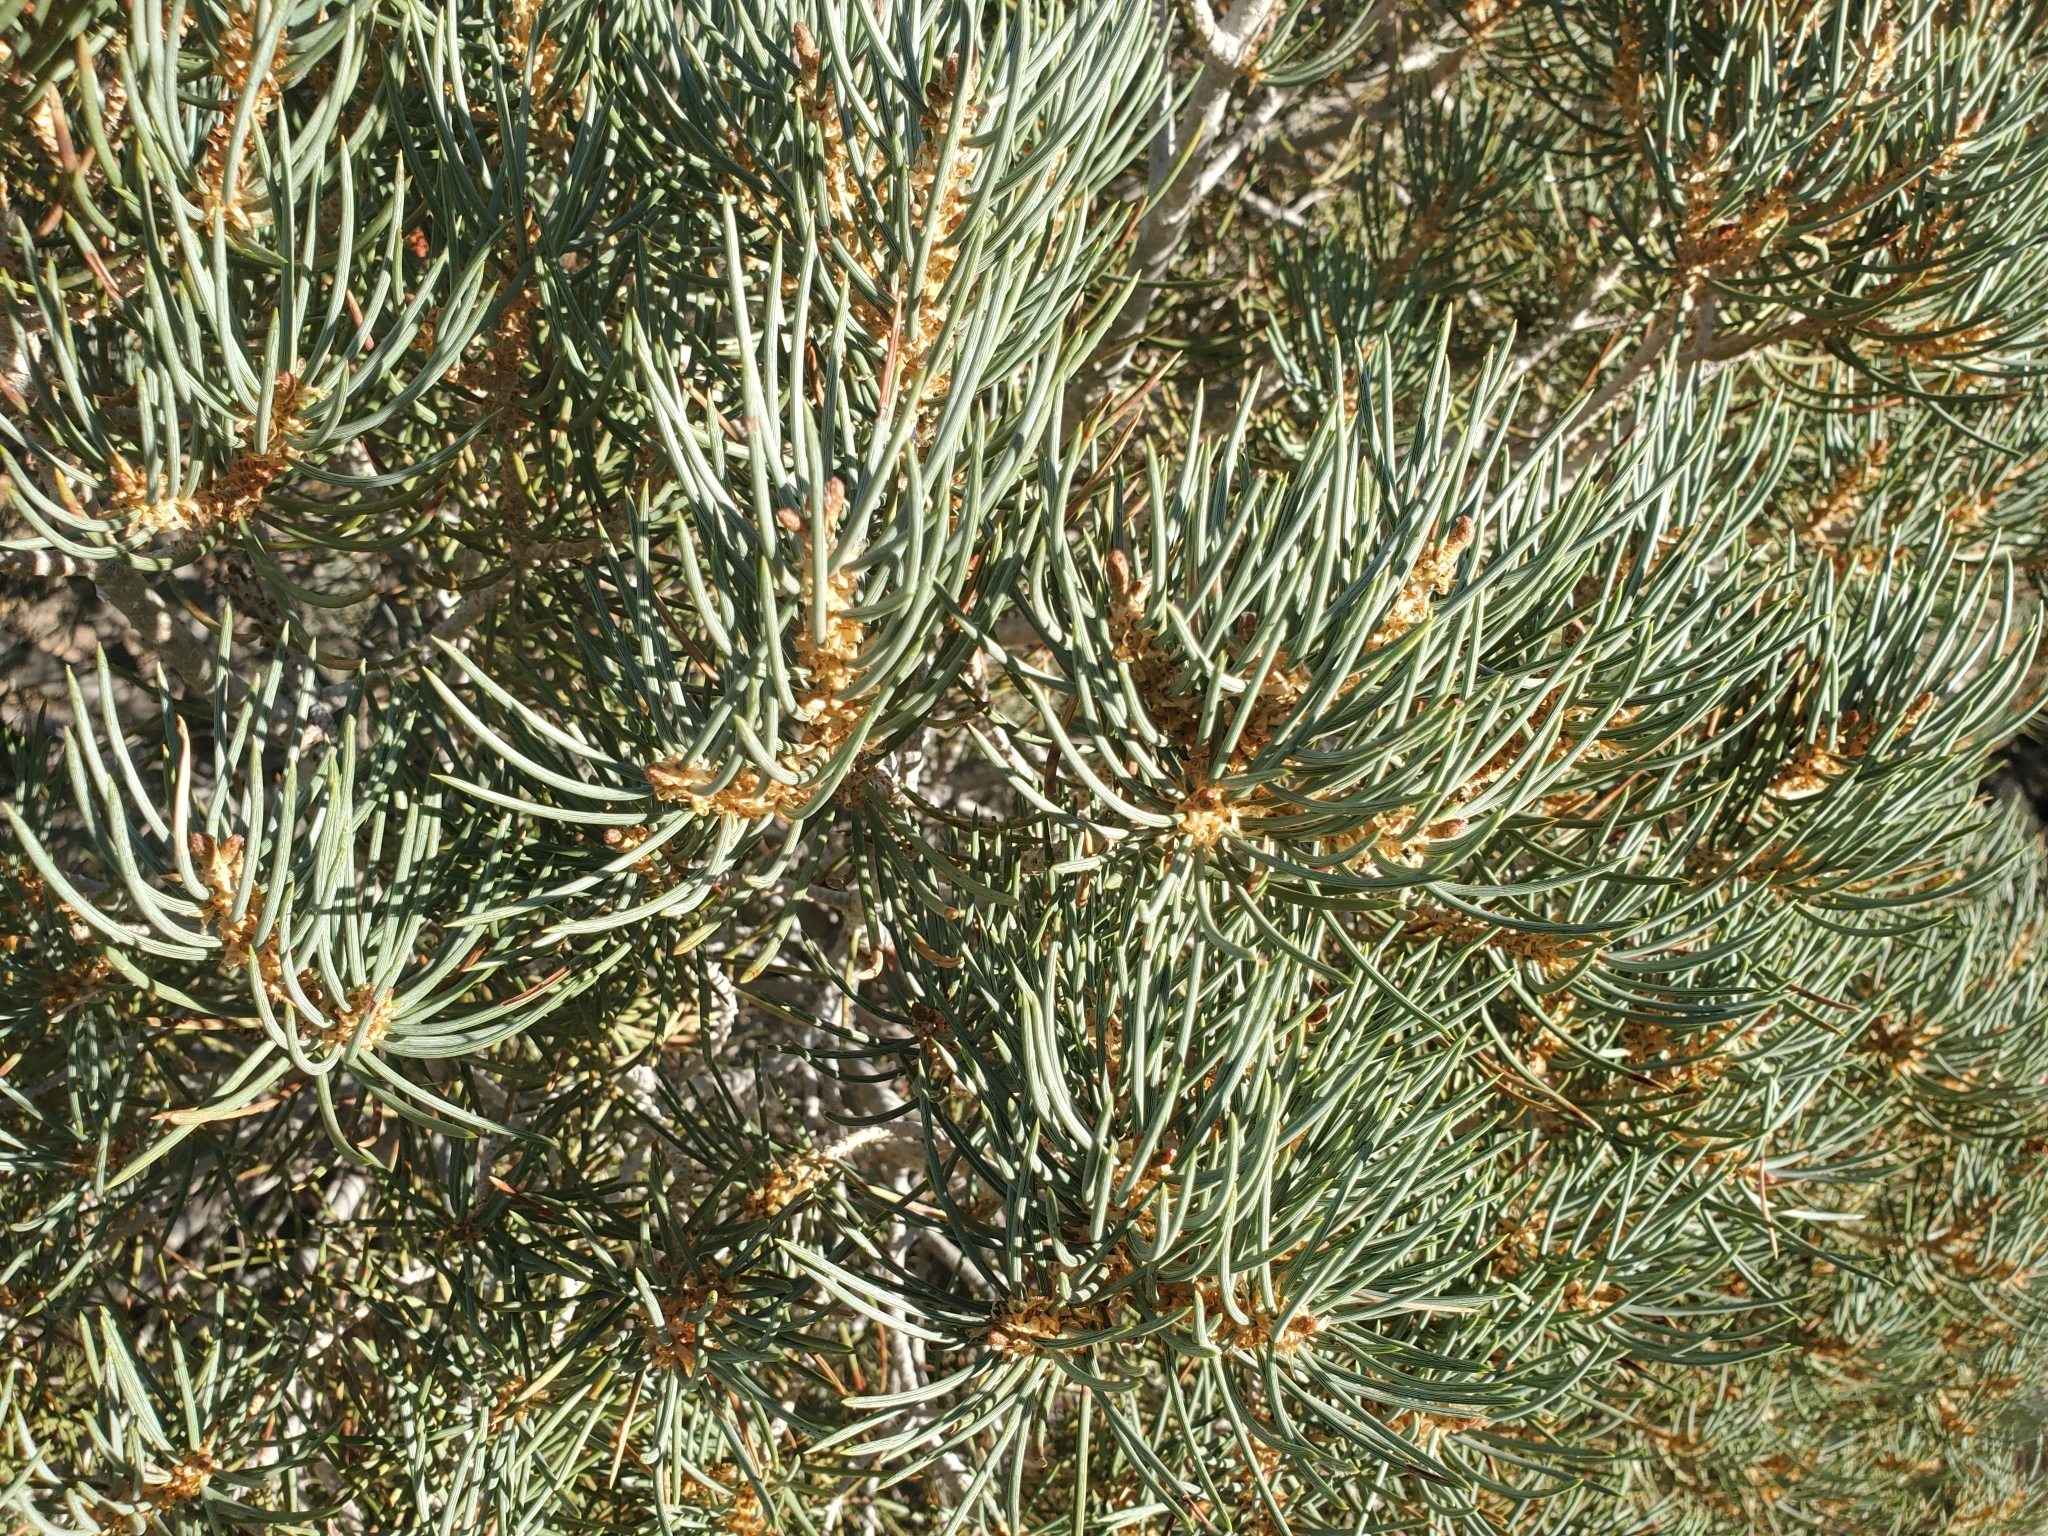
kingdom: Plantae
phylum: Tracheophyta
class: Pinopsida
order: Pinales
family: Pinaceae
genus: Pinus
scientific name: Pinus monophylla
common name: One-leaved nut pine
